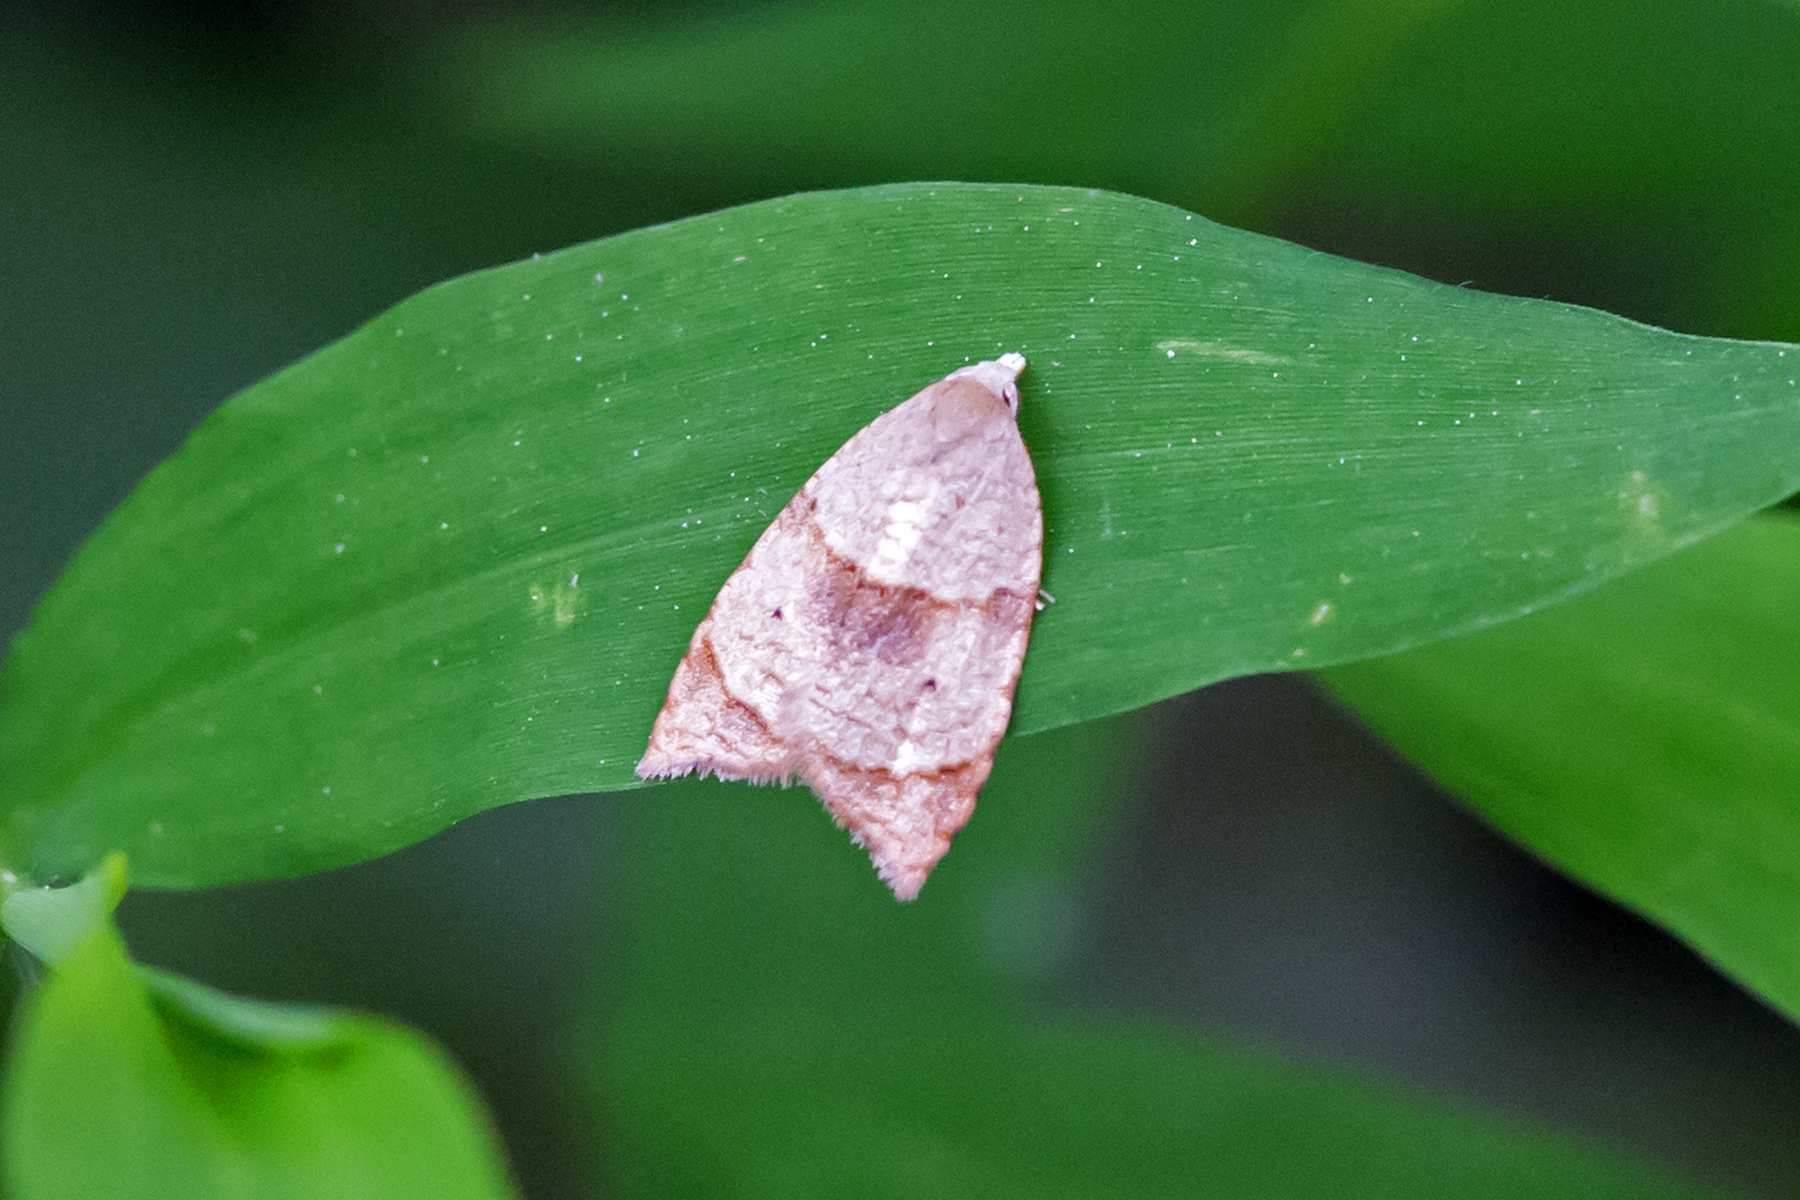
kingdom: Animalia
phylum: Arthropoda
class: Insecta
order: Lepidoptera
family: Tortricidae
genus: Coelostathma
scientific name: Coelostathma discopunctana
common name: Batman moth
